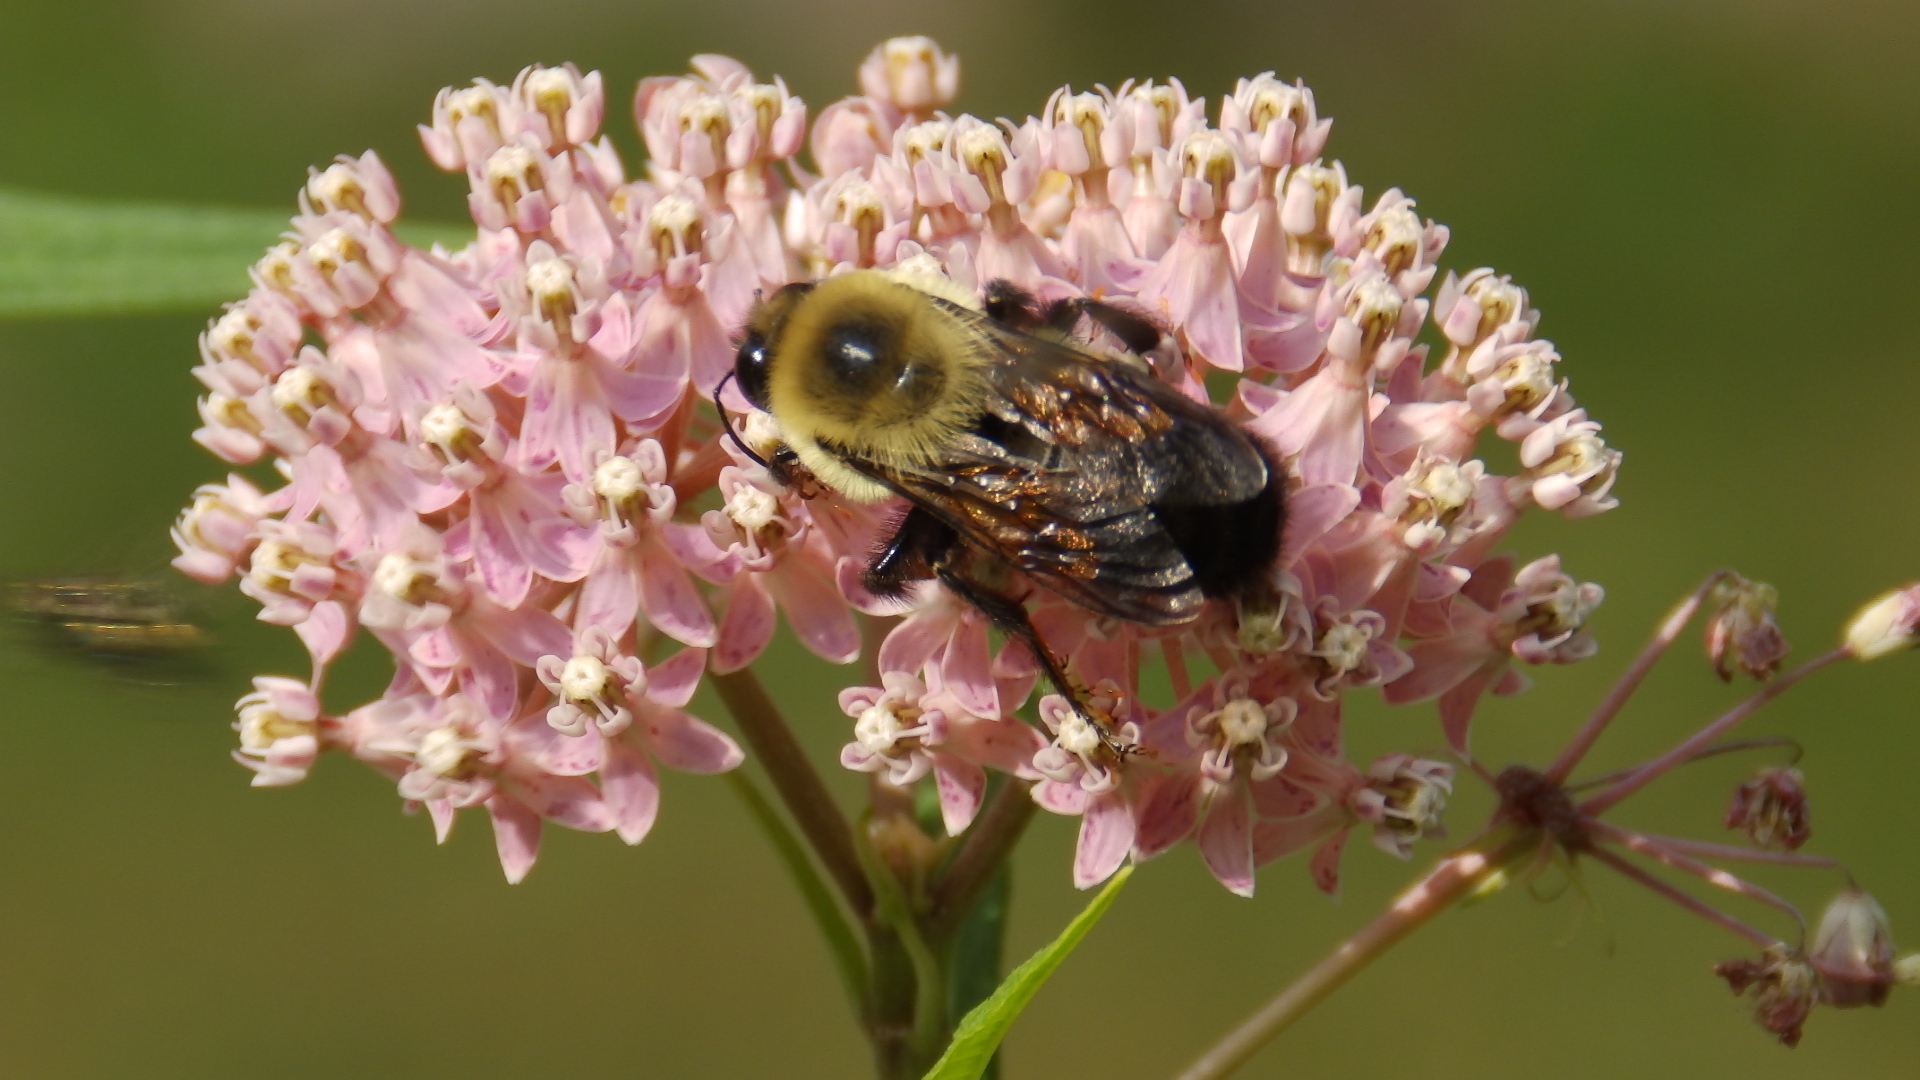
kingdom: Animalia
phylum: Arthropoda
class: Insecta
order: Hymenoptera
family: Apidae
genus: Bombus
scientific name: Bombus griseocollis
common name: Brown-belted bumble bee
